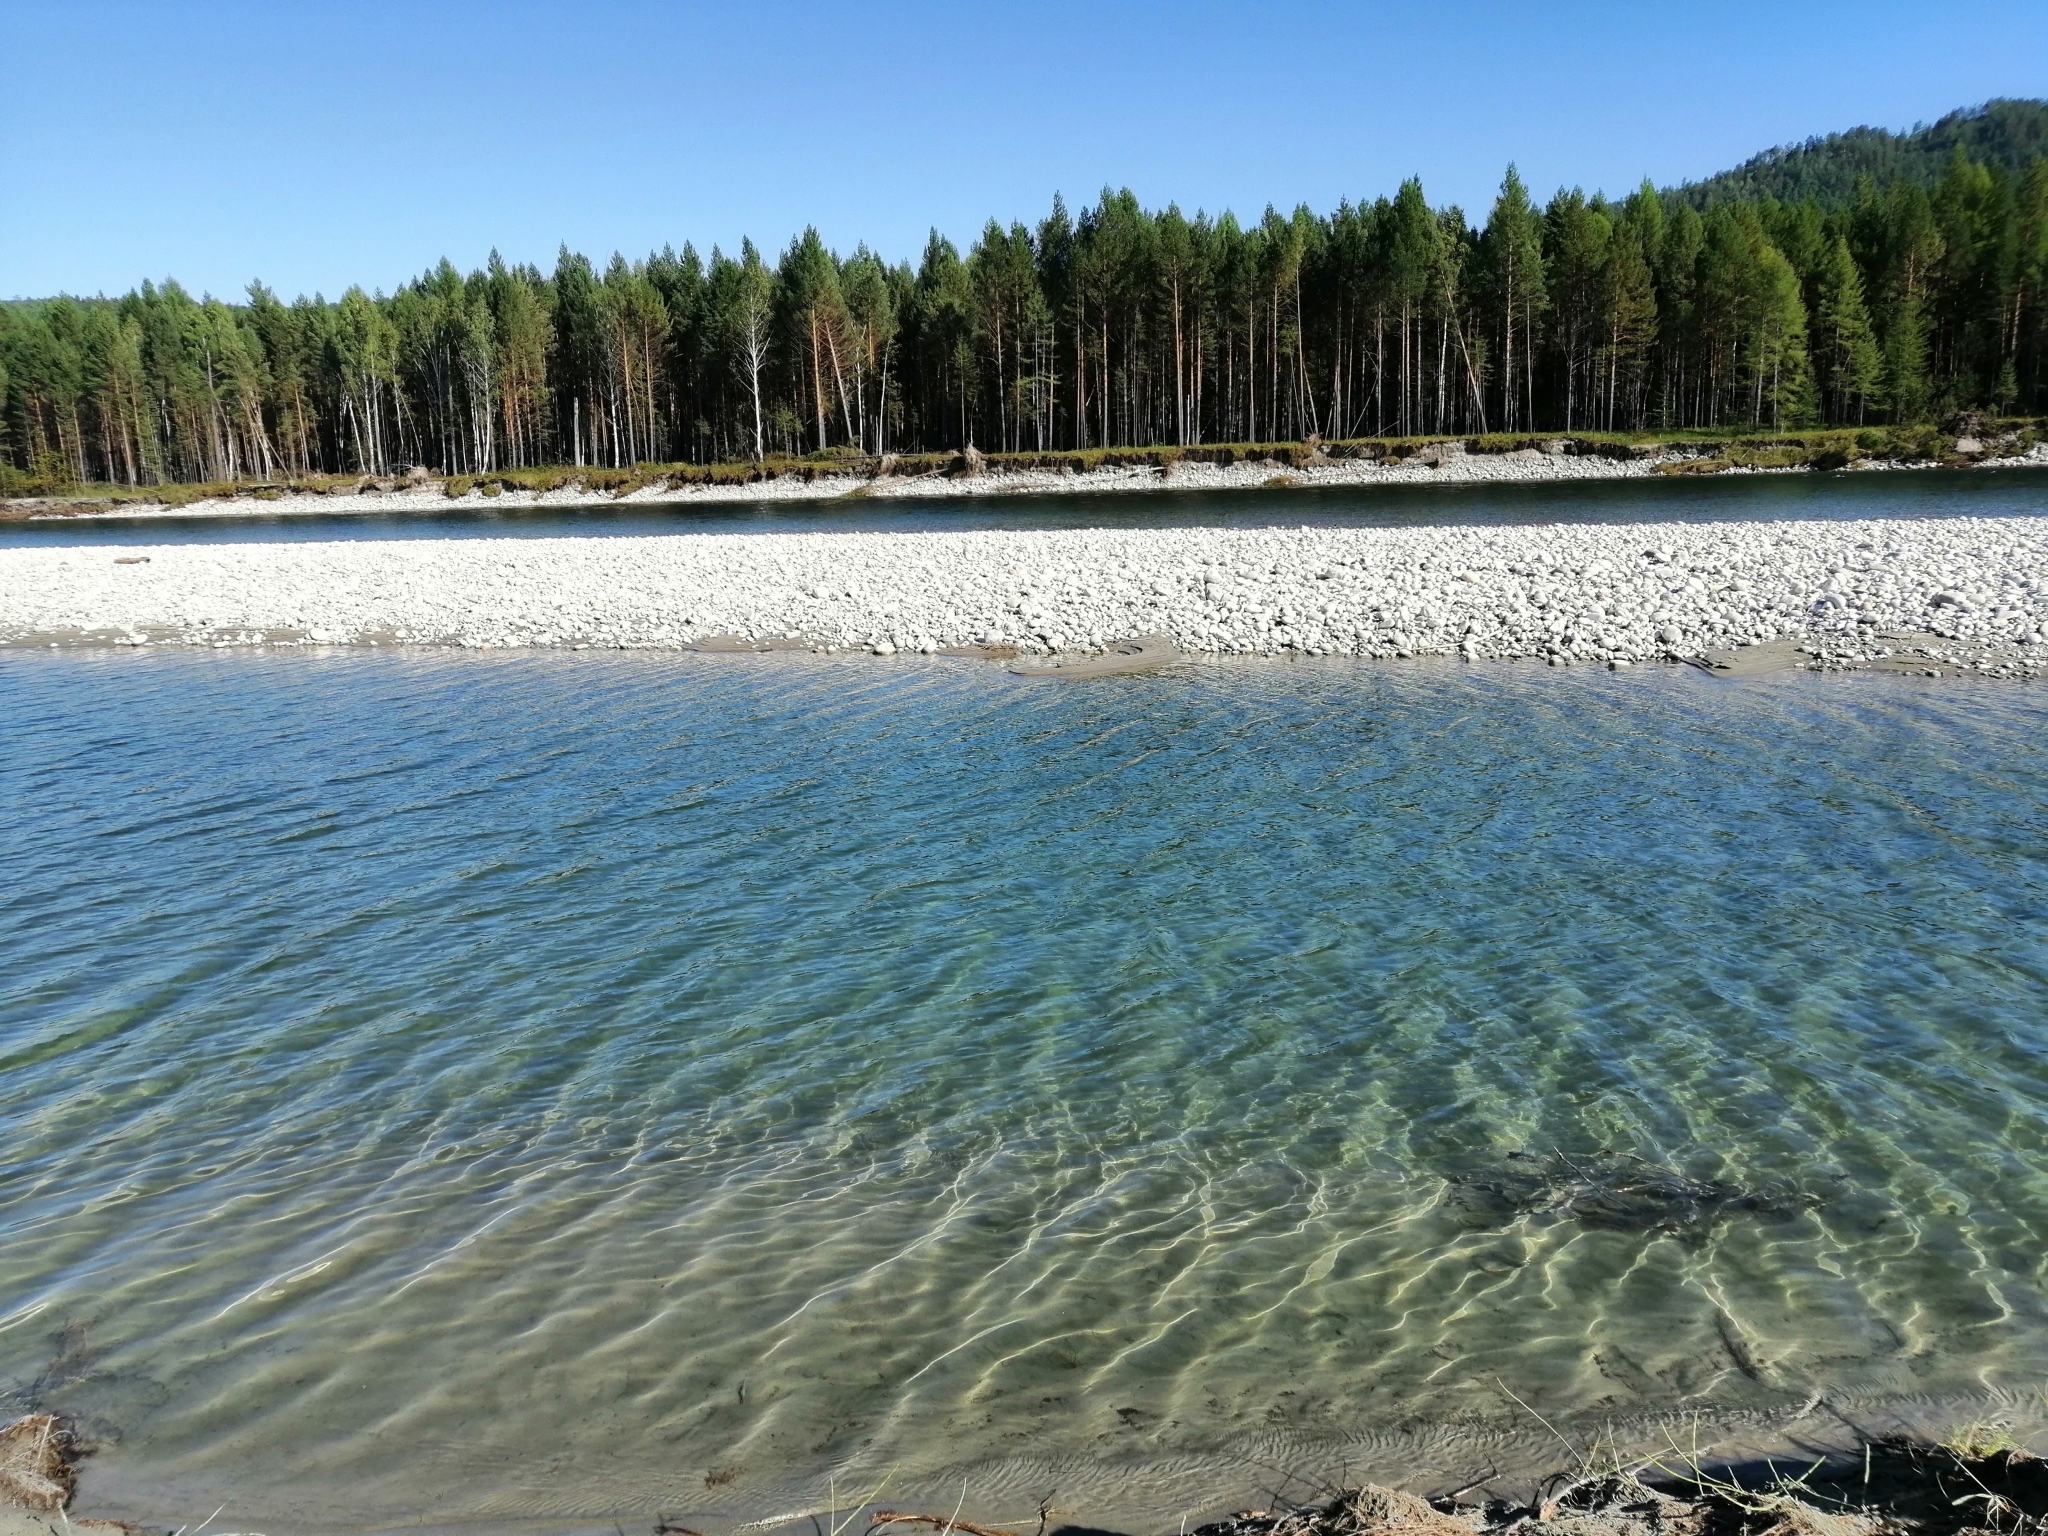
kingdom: Plantae
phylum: Tracheophyta
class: Pinopsida
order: Pinales
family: Pinaceae
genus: Pinus
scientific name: Pinus sylvestris
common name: Scots pine
